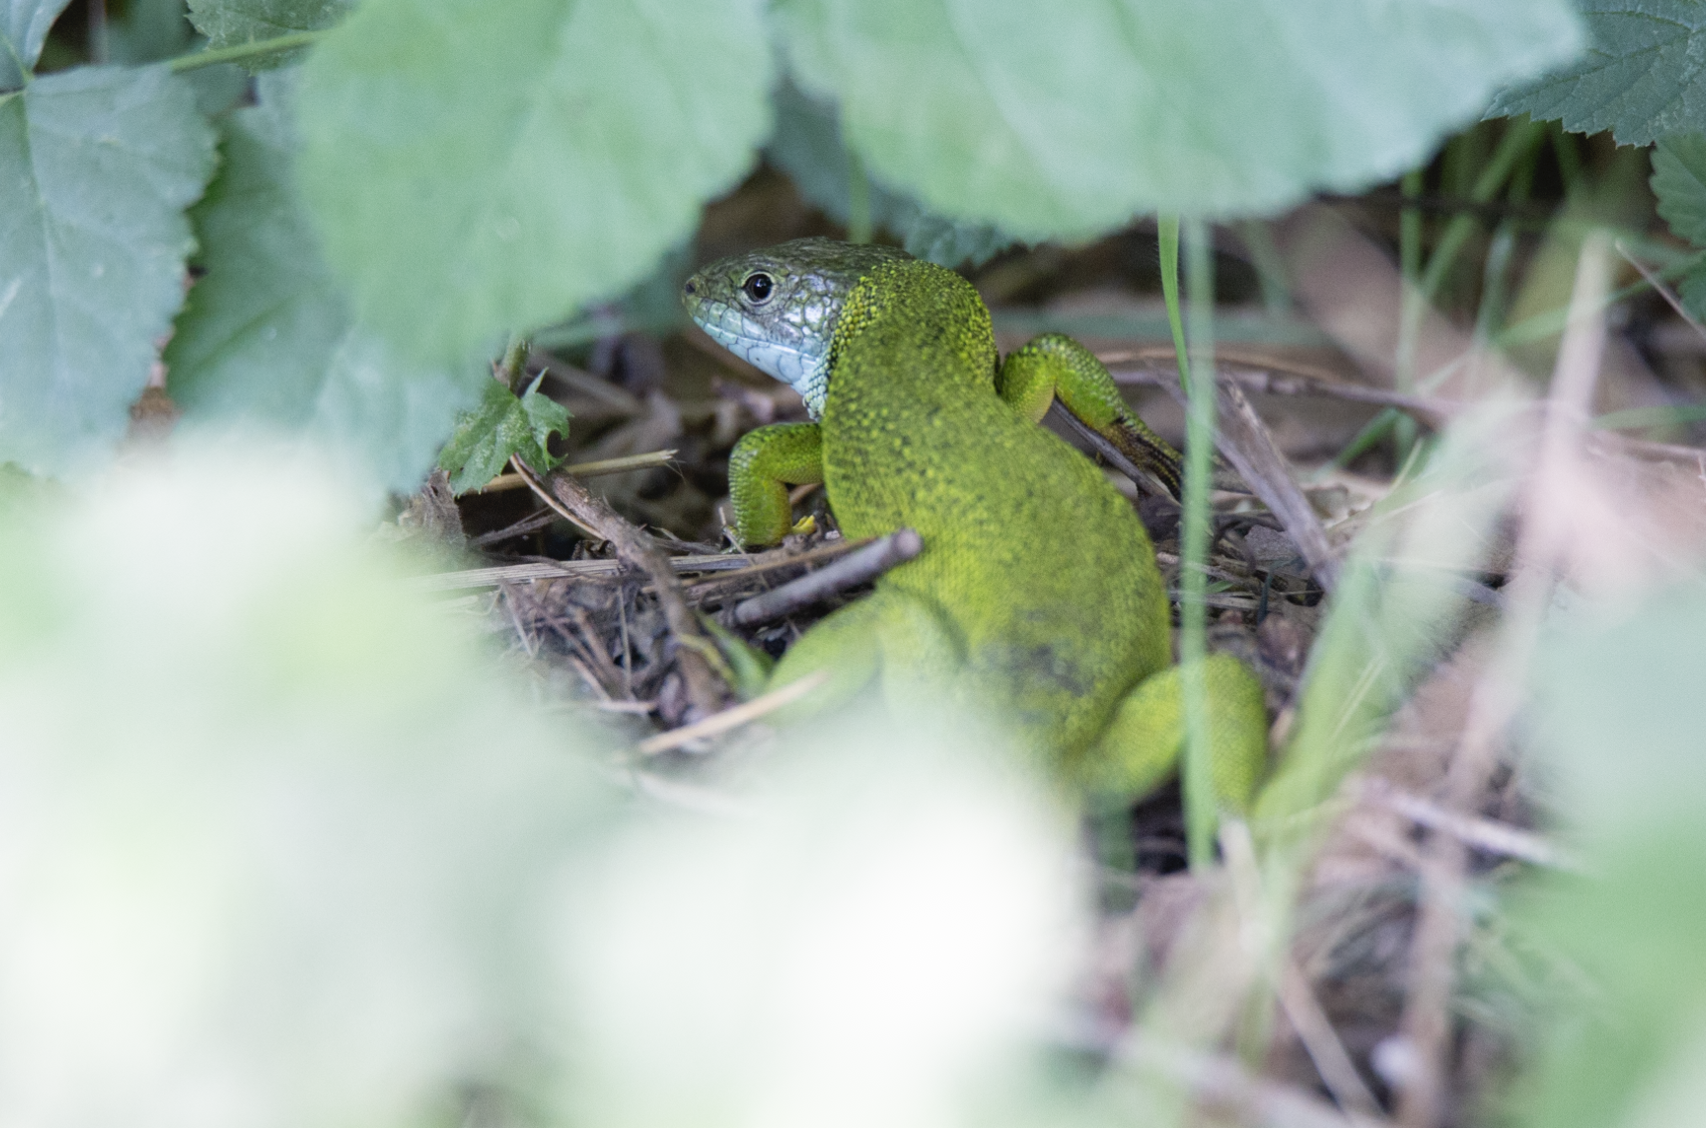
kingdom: Animalia
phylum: Chordata
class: Squamata
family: Lacertidae
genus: Lacerta
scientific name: Lacerta bilineata
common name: Western green lizard
